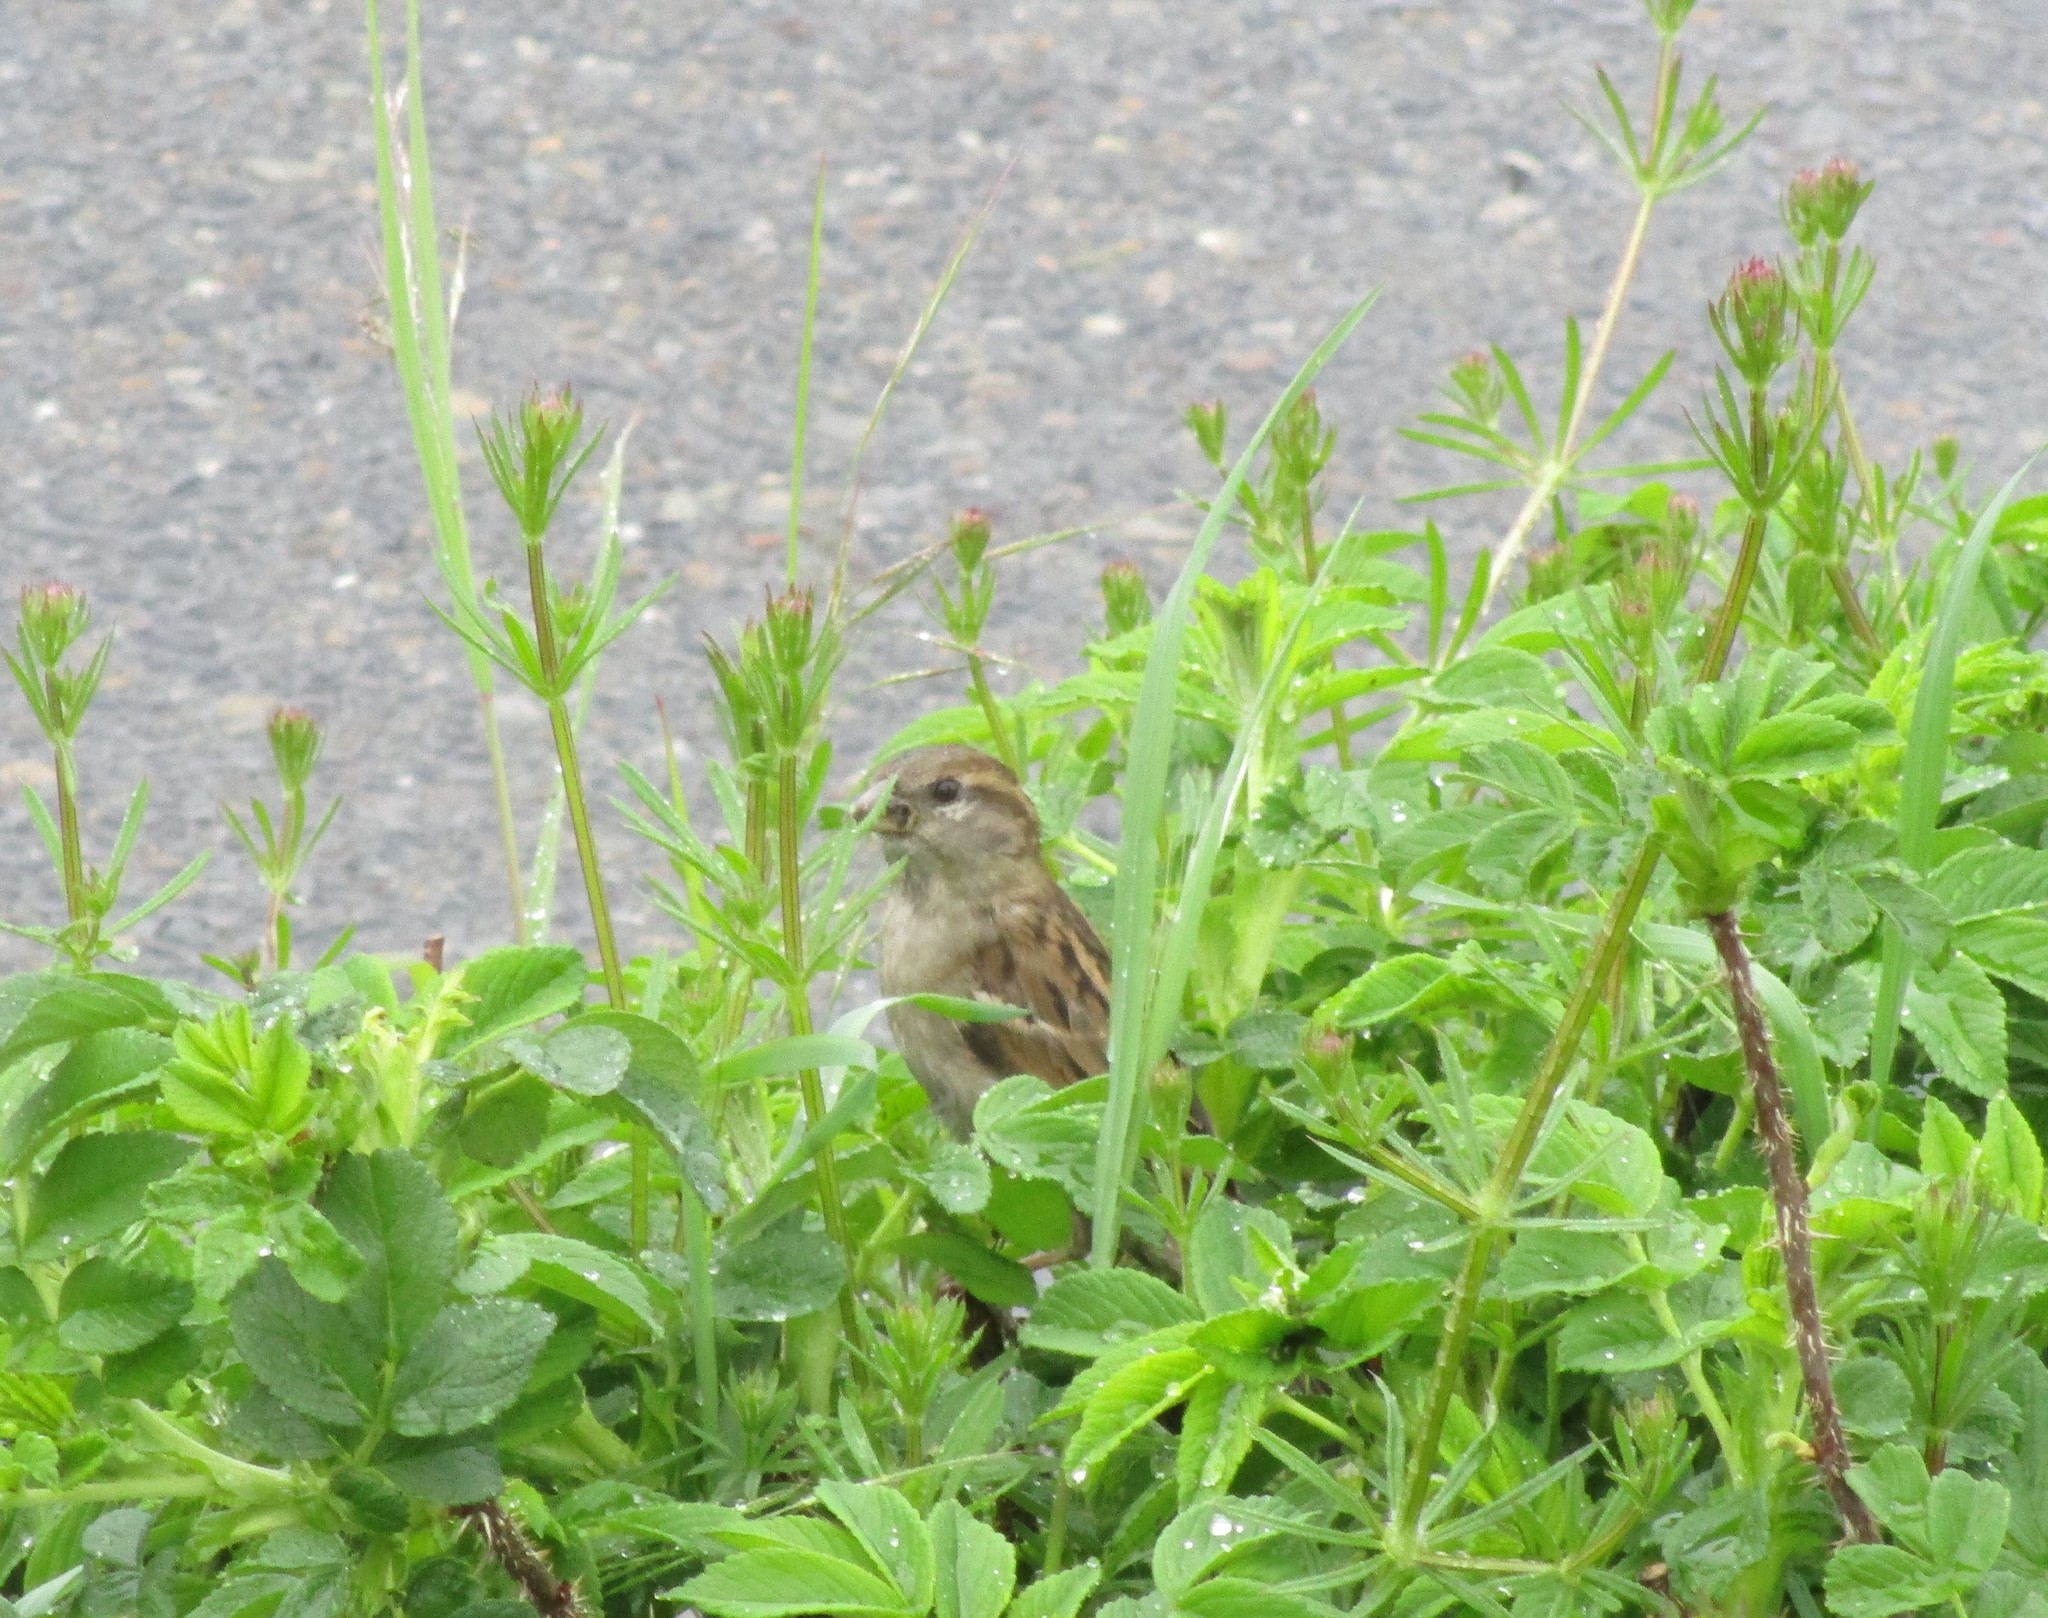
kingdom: Animalia
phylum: Chordata
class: Aves
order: Passeriformes
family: Passeridae
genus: Passer
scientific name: Passer domesticus
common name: House sparrow
